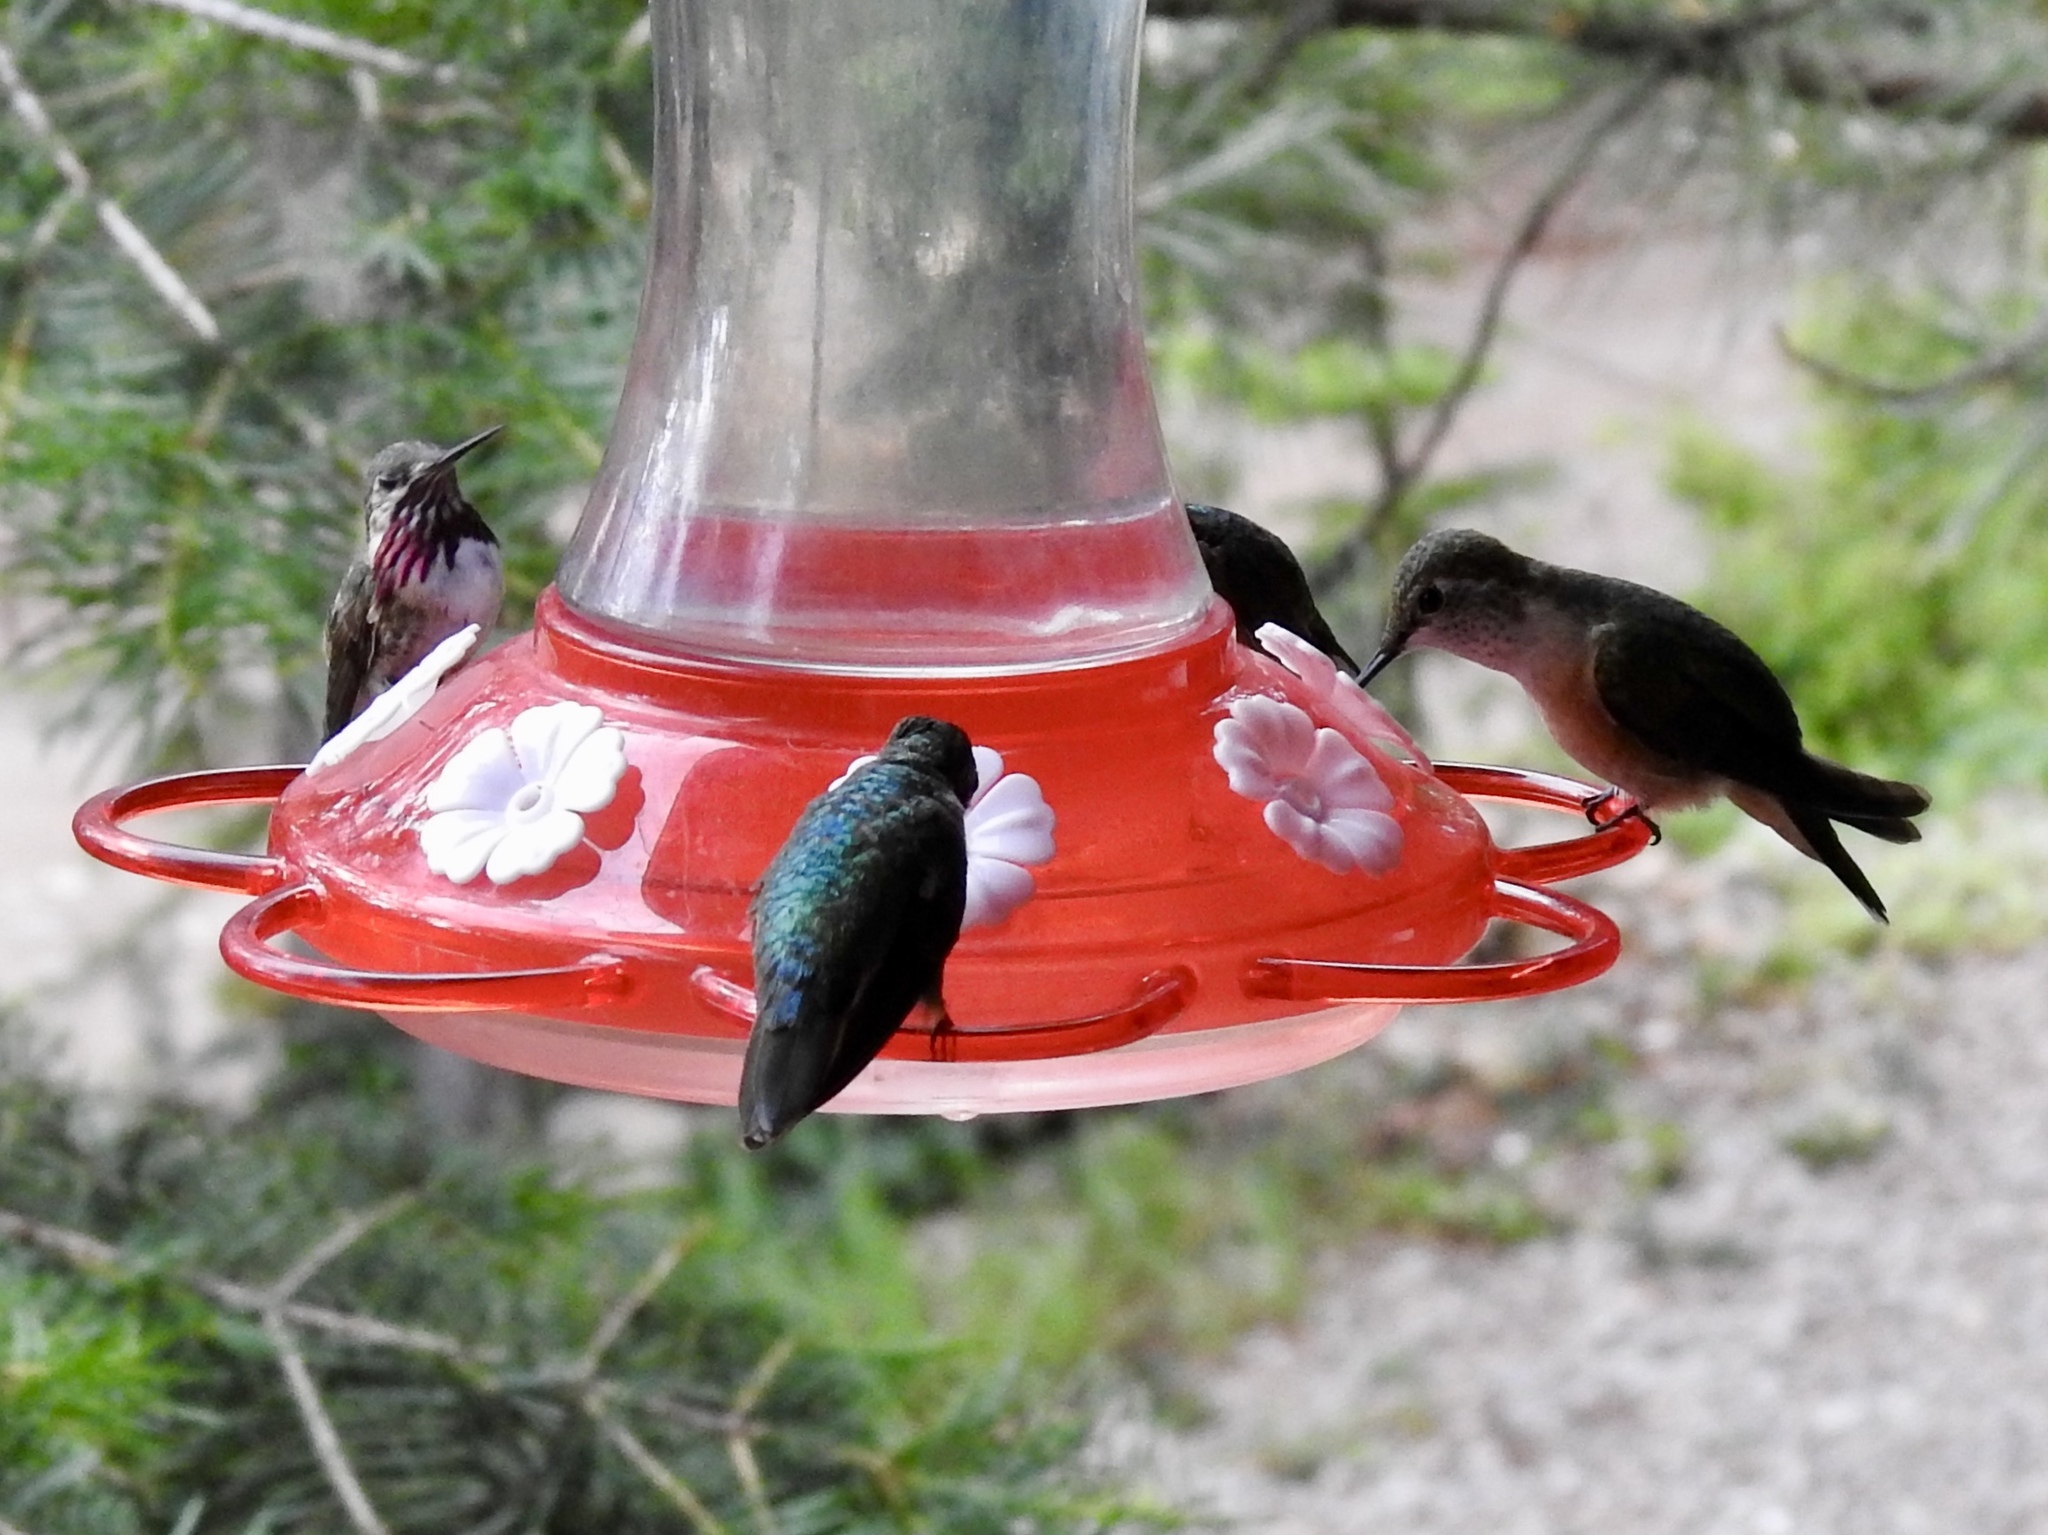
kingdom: Animalia
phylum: Chordata
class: Aves
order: Apodiformes
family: Trochilidae
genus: Selasphorus
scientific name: Selasphorus calliope
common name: Calliope hummingbird
